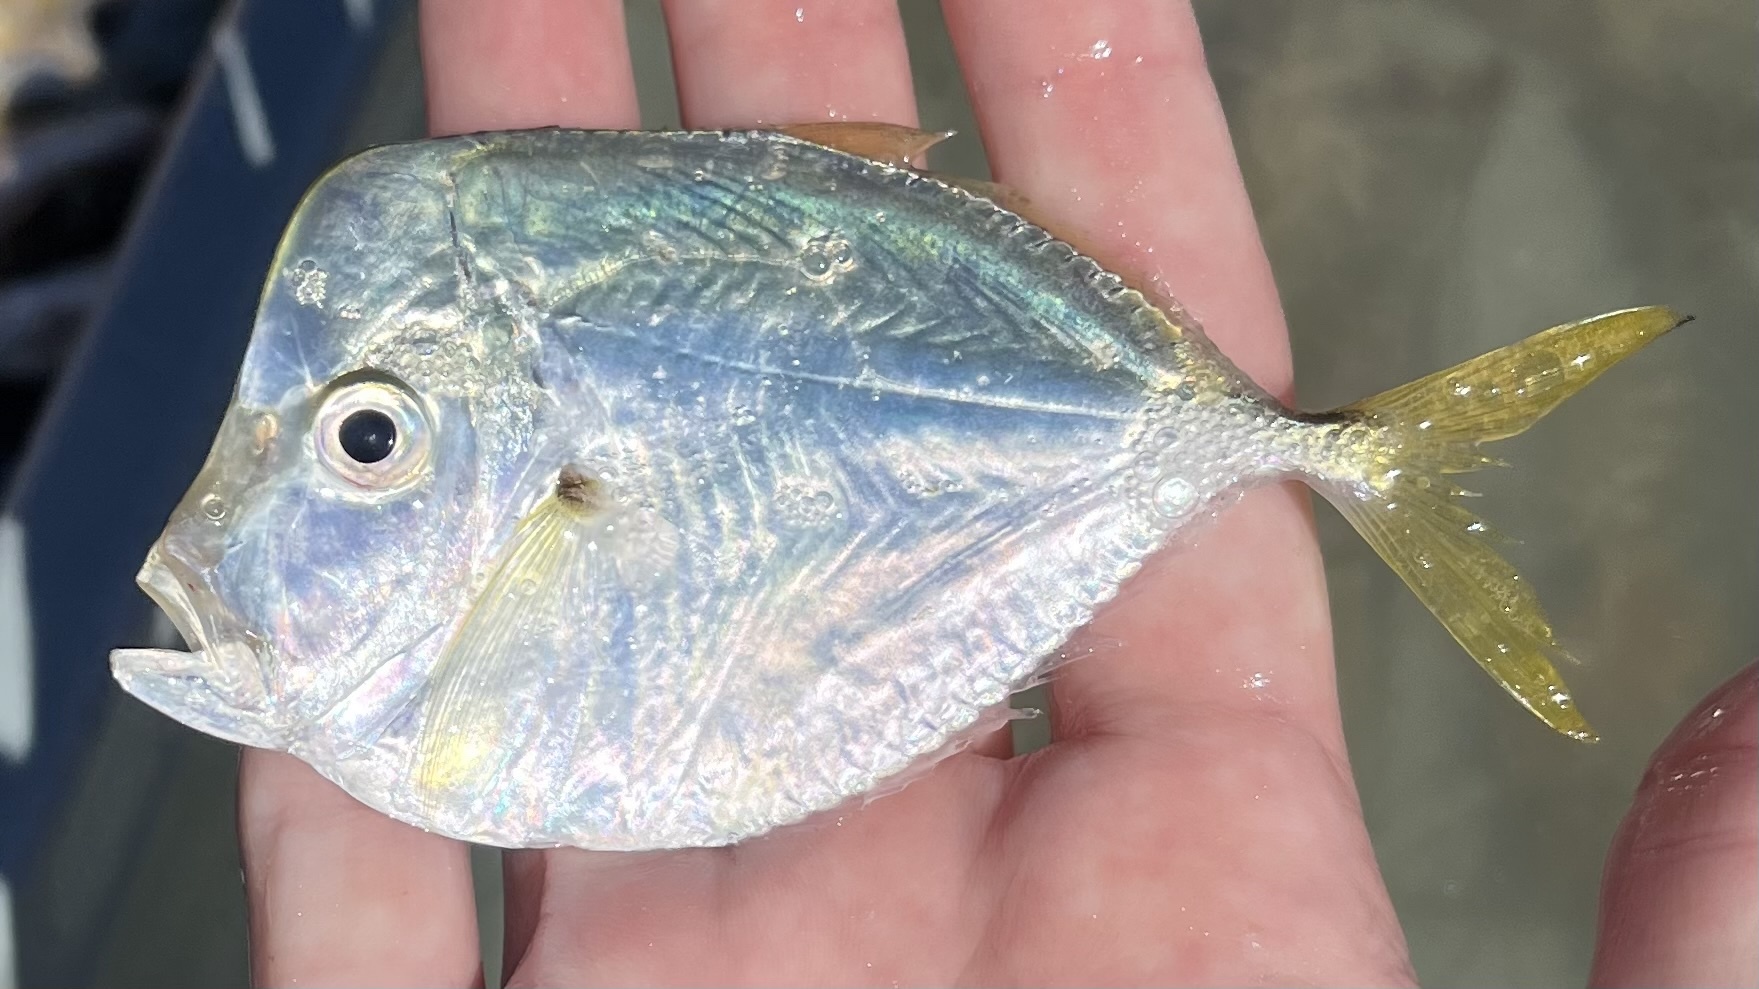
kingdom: Animalia
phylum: Chordata
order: Perciformes
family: Carangidae
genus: Selene
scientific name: Selene setapinnis
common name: Moonfish
